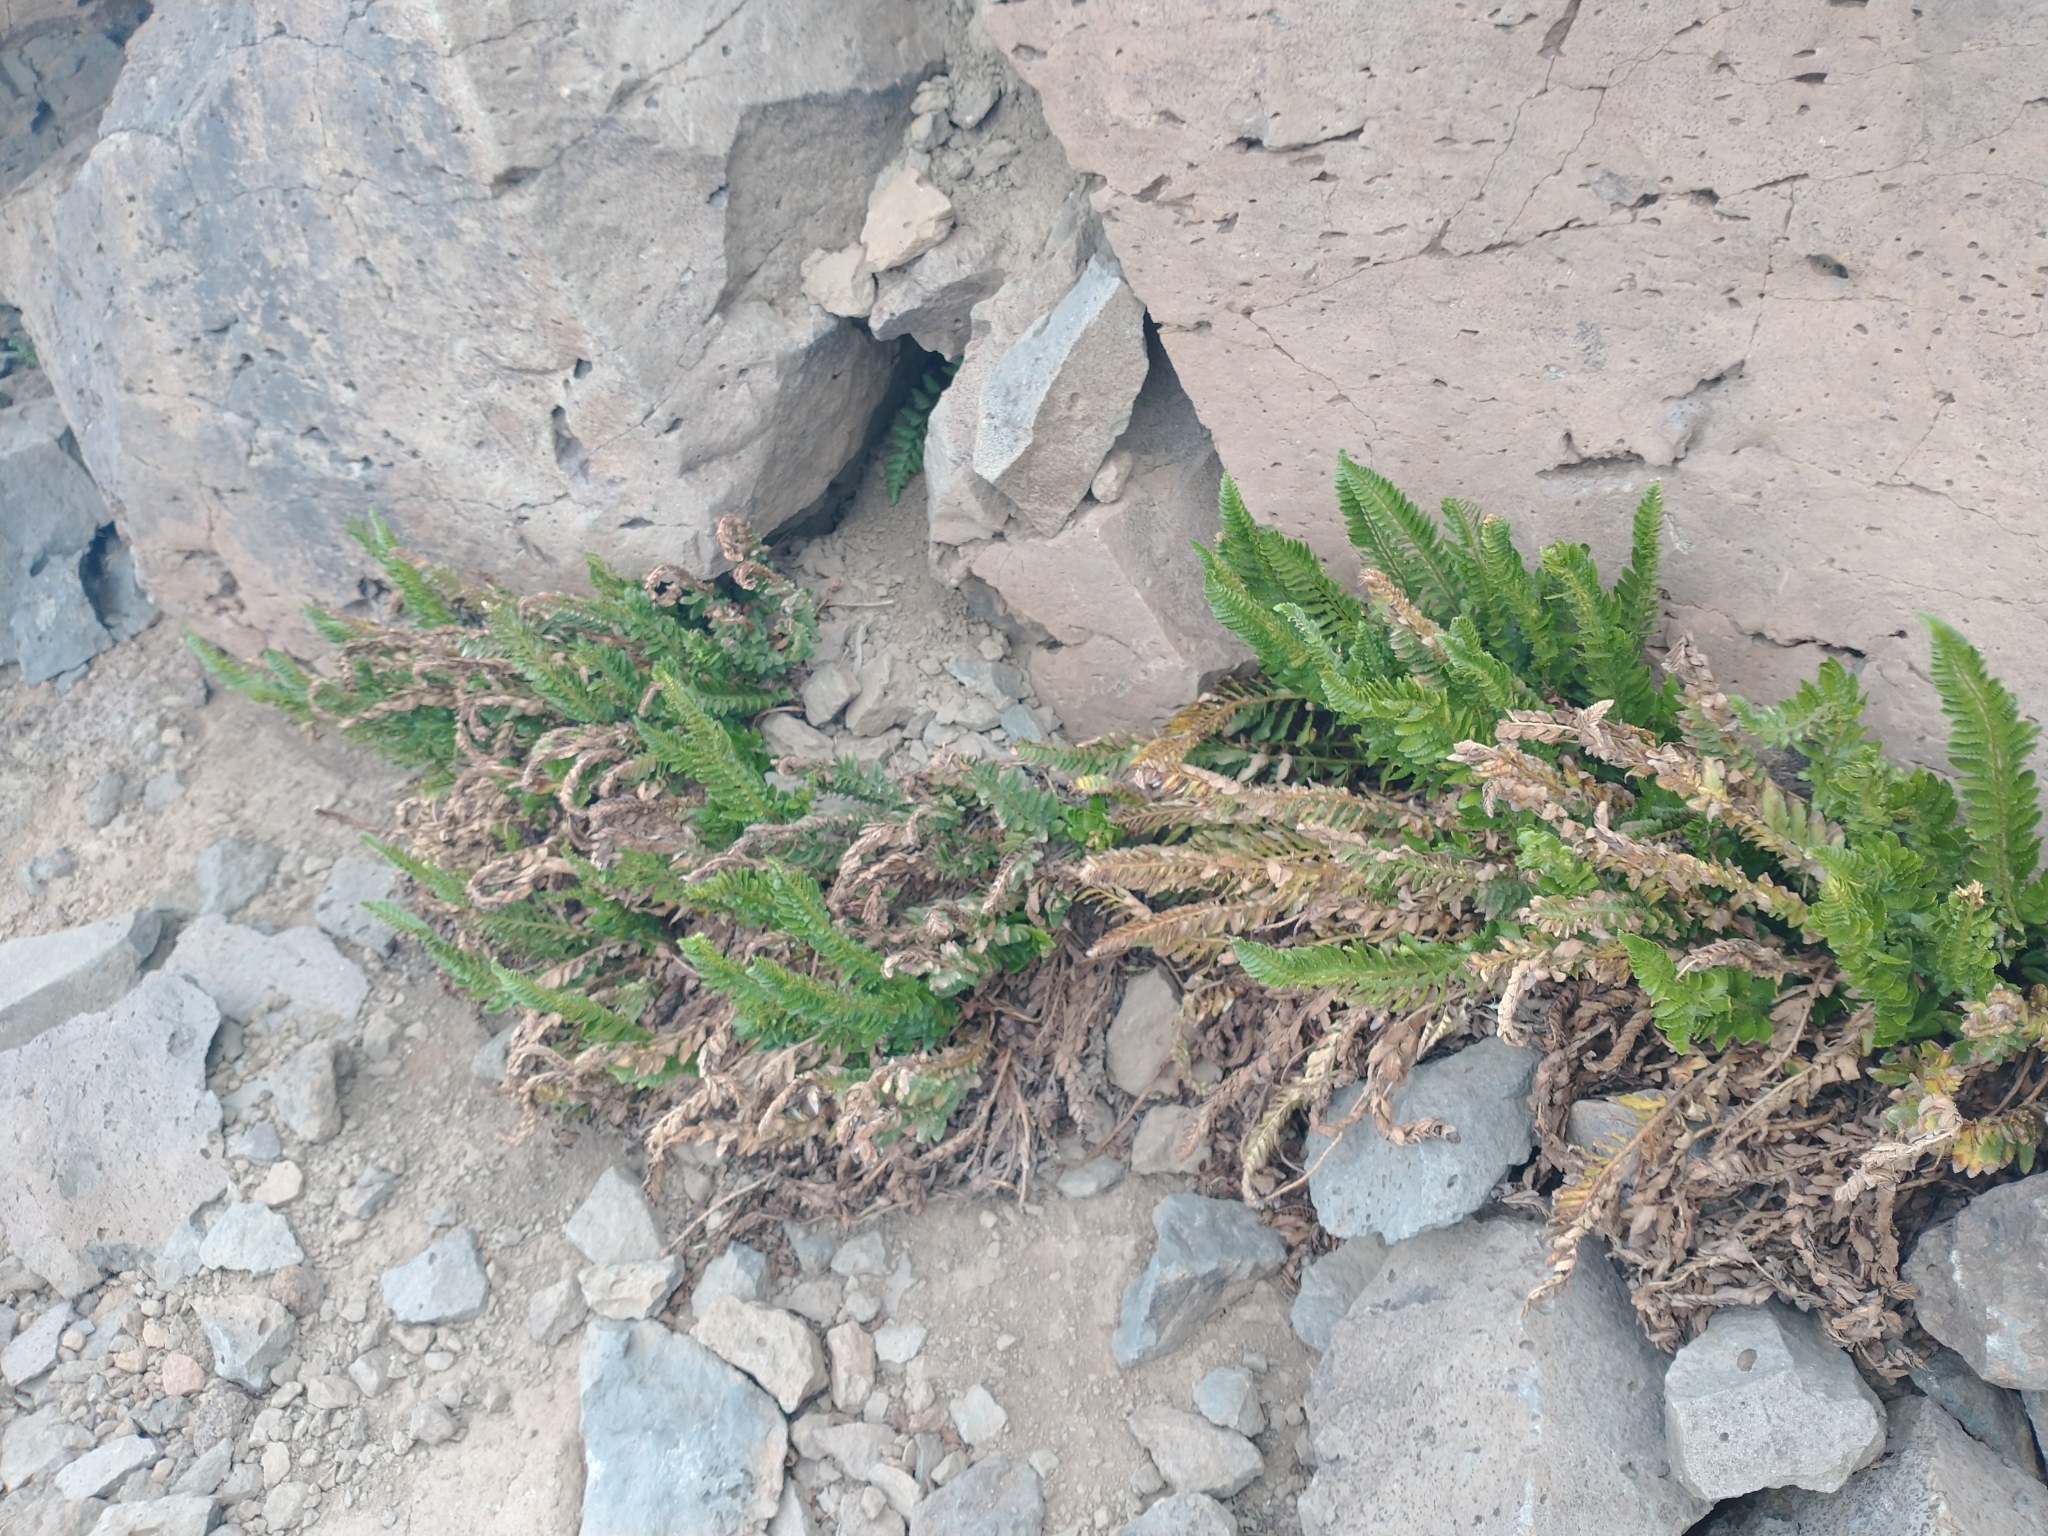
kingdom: Plantae
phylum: Tracheophyta
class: Polypodiopsida
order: Polypodiales
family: Dryopteridaceae
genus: Polystichum
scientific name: Polystichum scopulinum
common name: Eaton's shield fern
